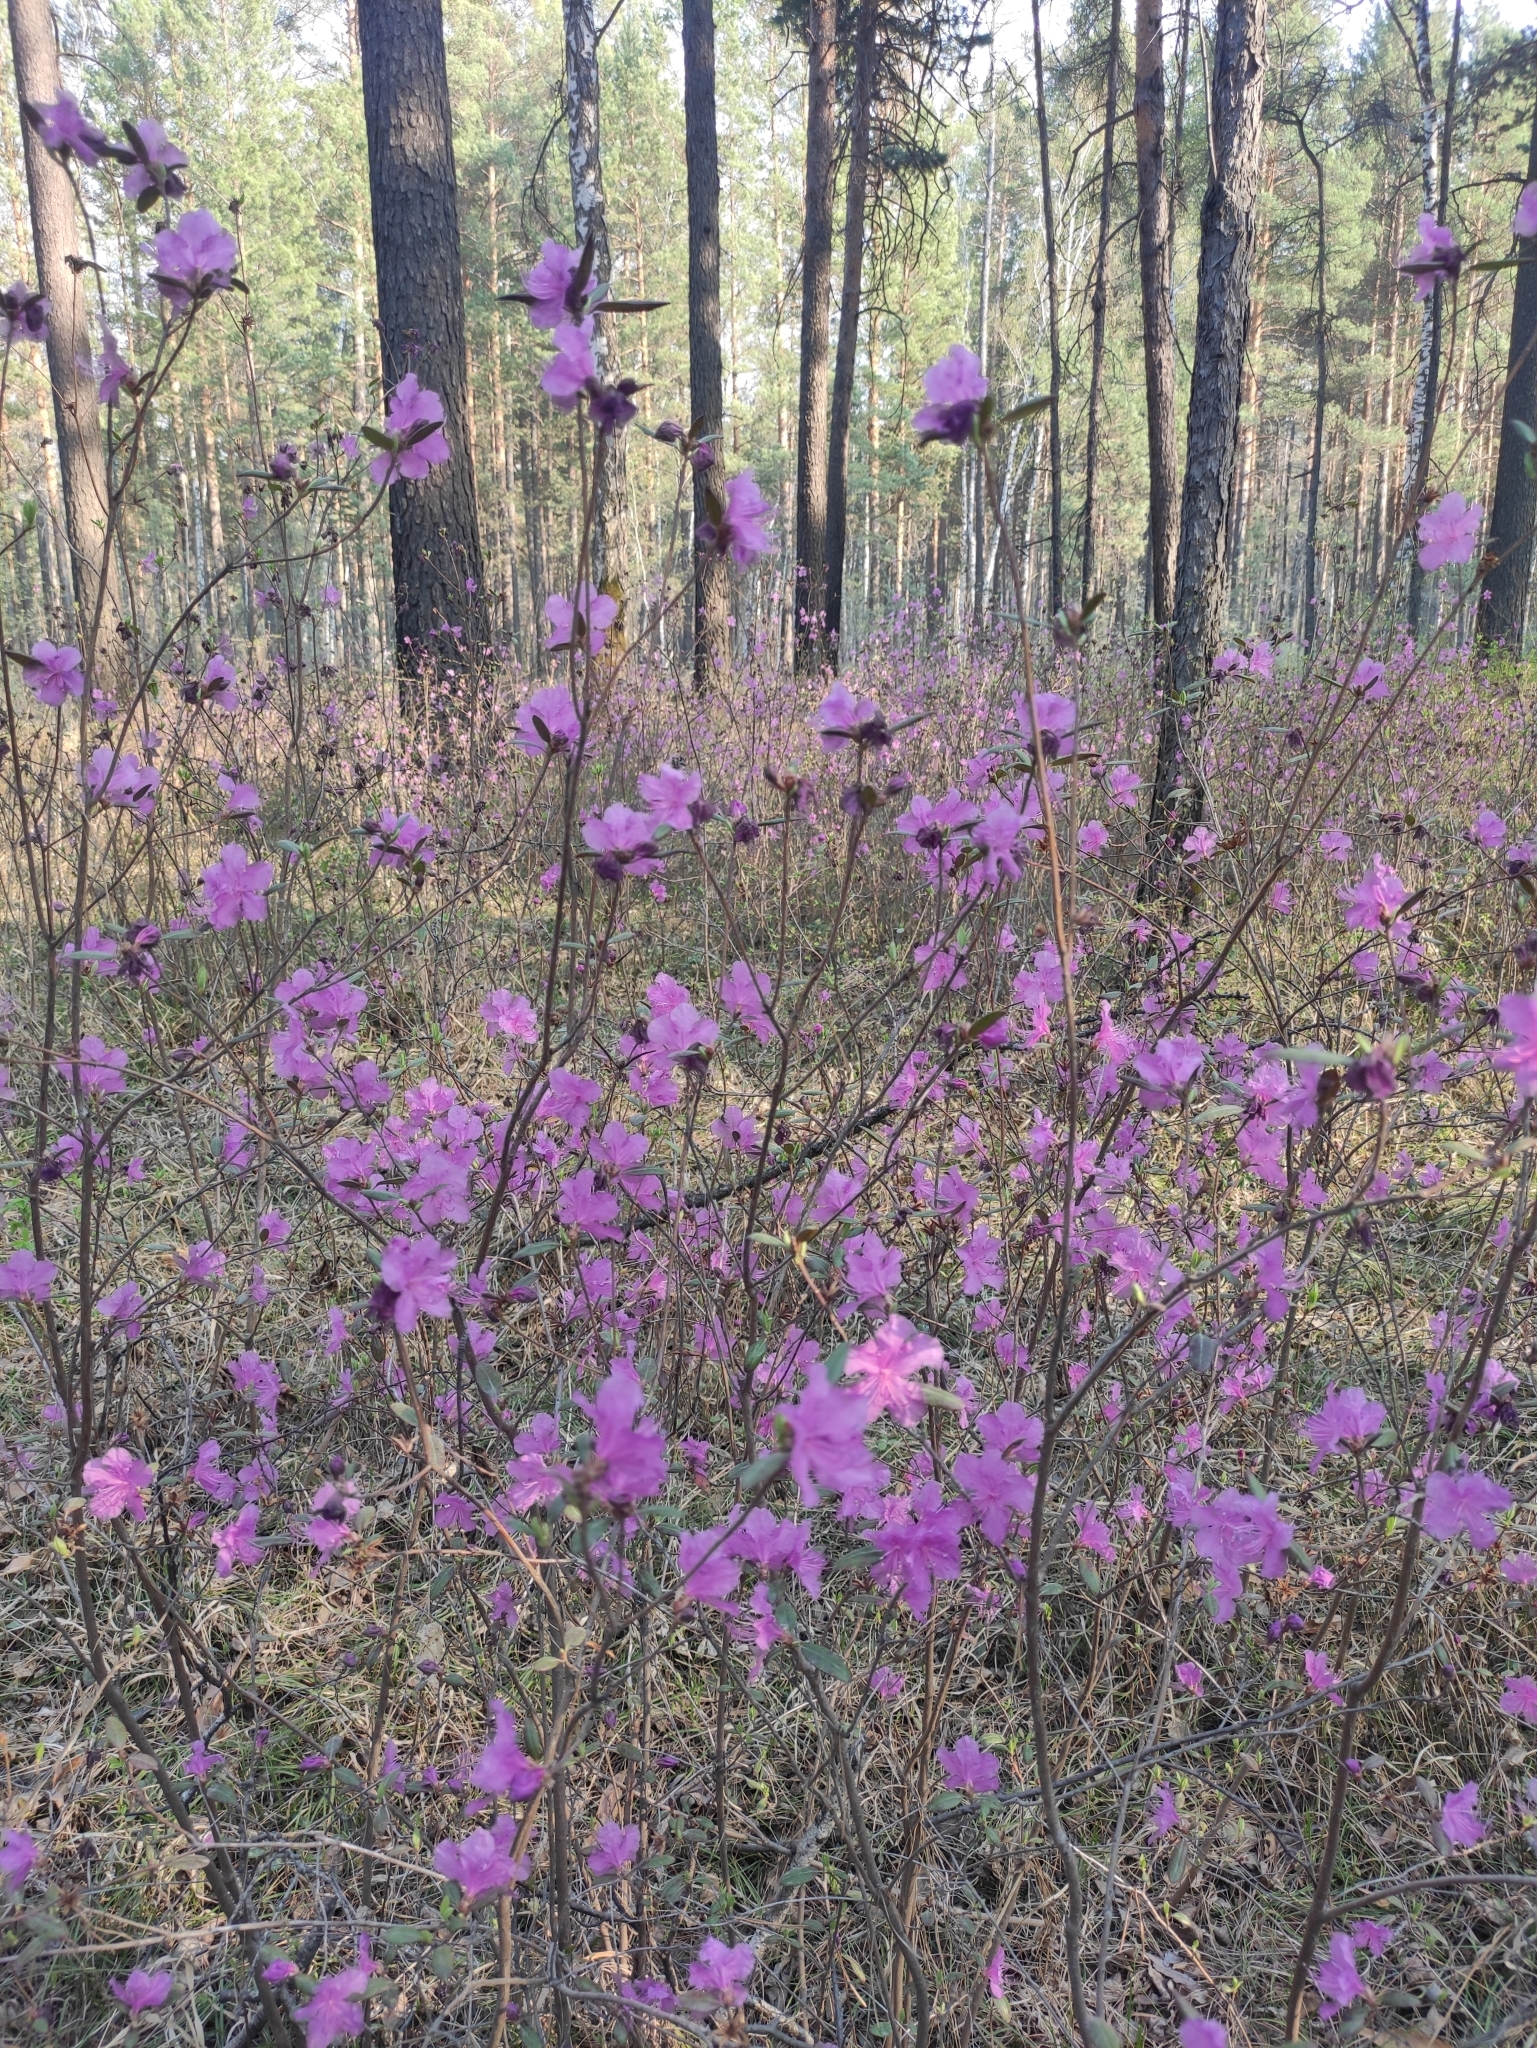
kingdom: Plantae
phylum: Tracheophyta
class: Magnoliopsida
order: Ericales
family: Ericaceae
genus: Rhododendron
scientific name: Rhododendron dauricum
